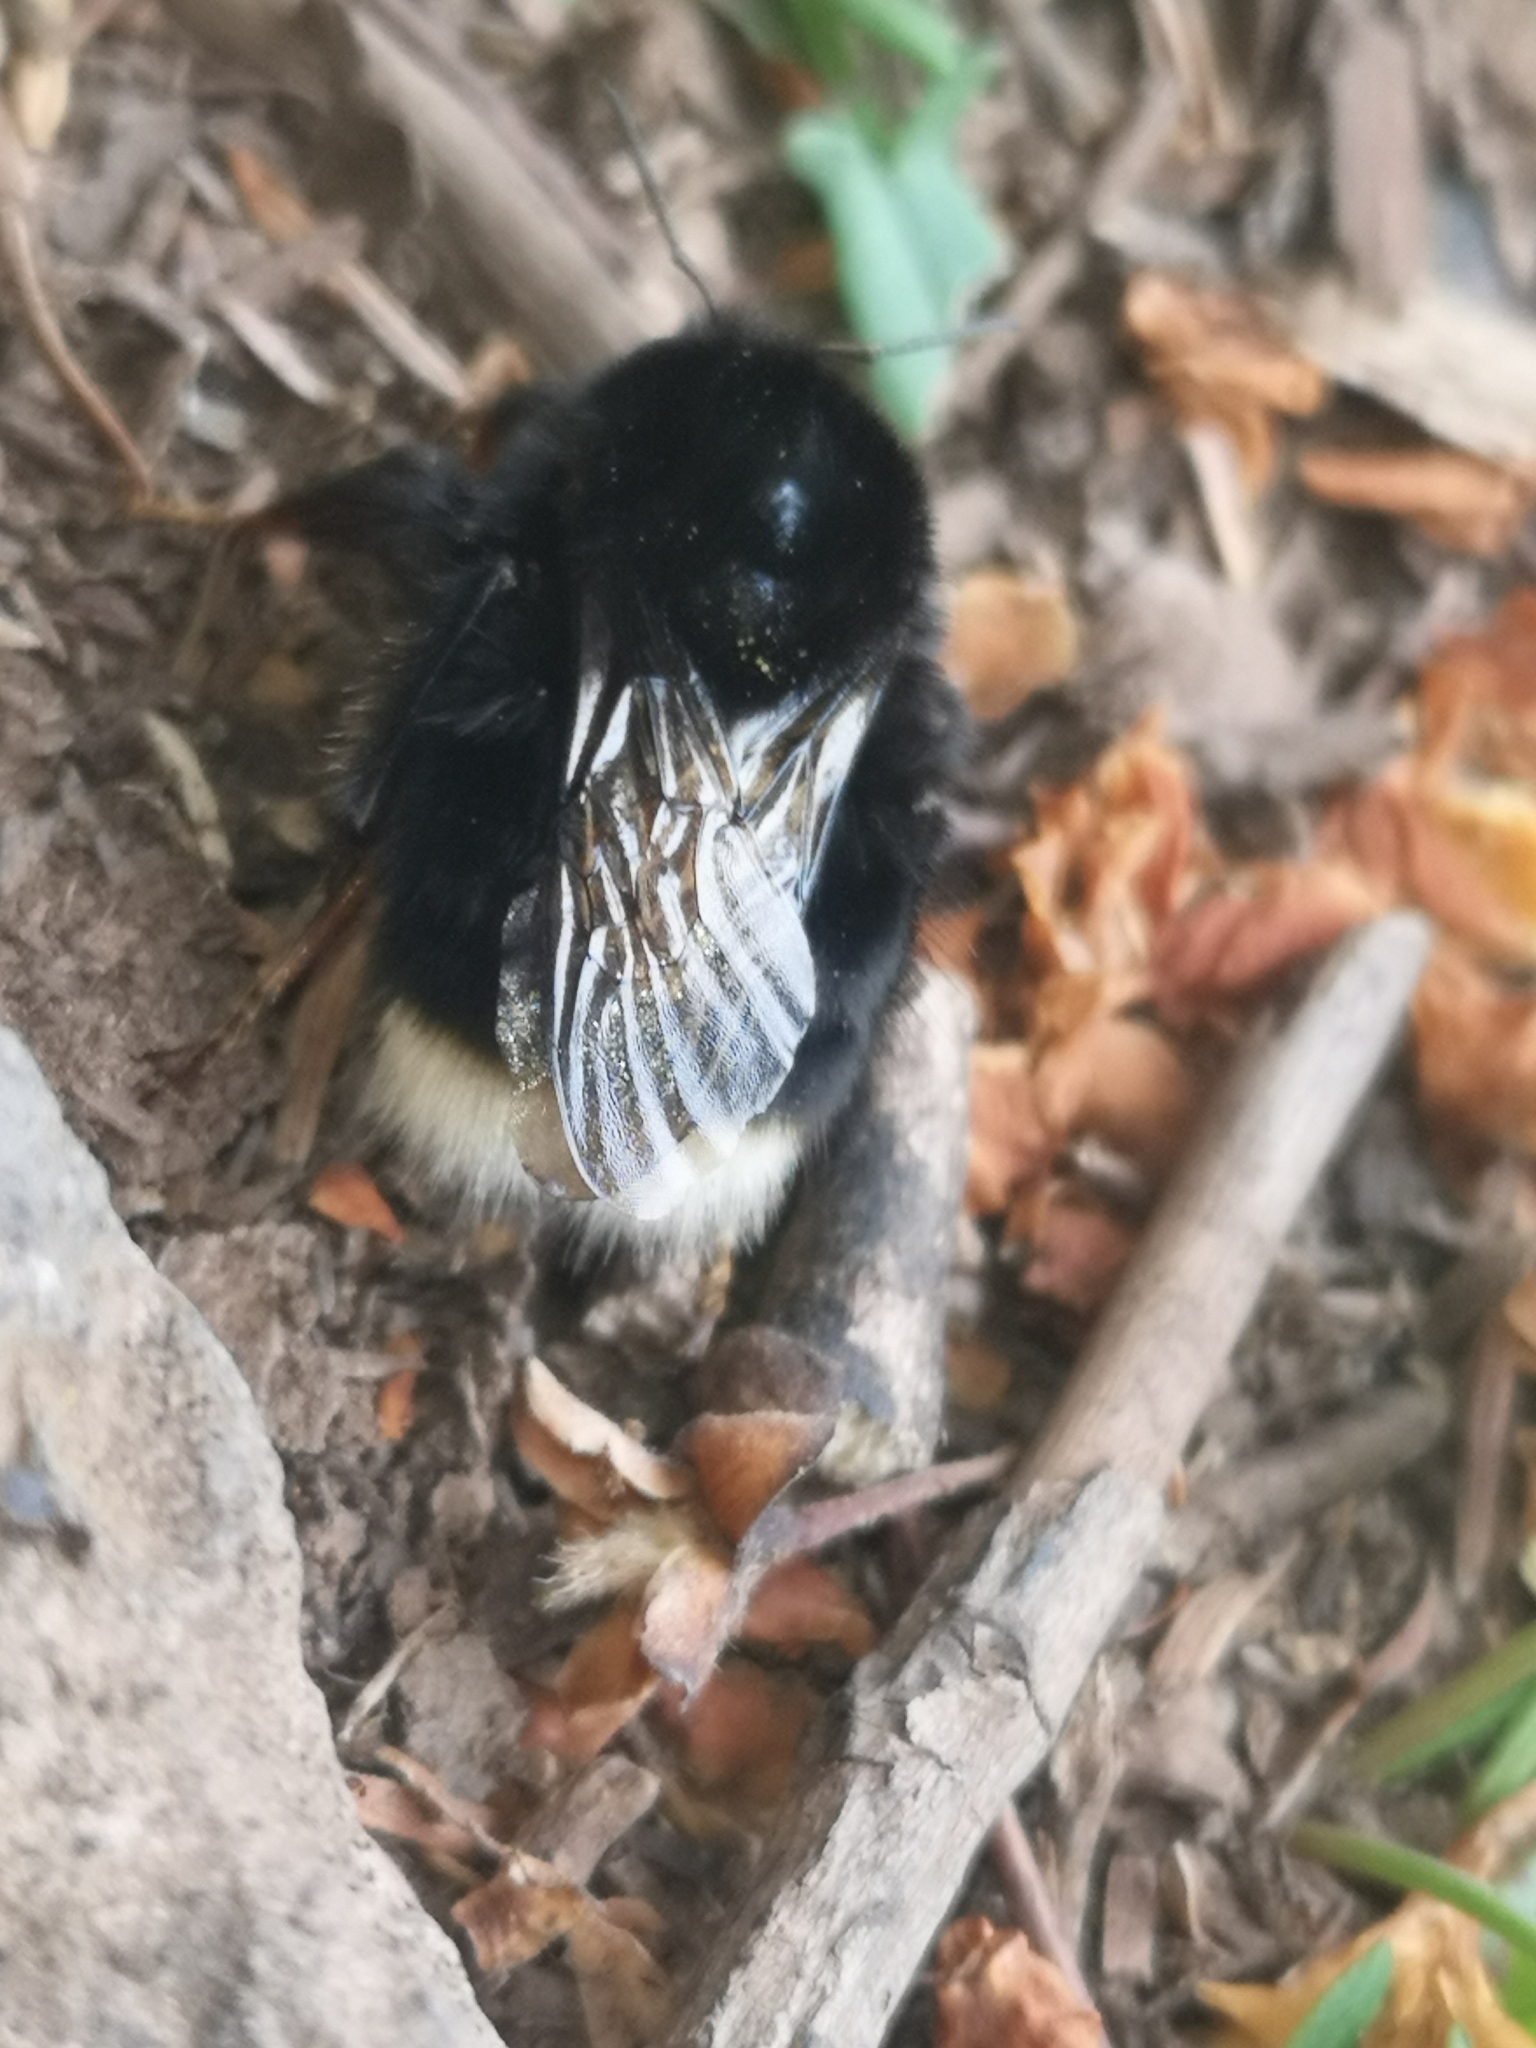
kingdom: Animalia
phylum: Arthropoda
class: Insecta
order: Hymenoptera
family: Apidae
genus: Bombus
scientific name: Bombus terrestris
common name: Buff-tailed bumblebee
